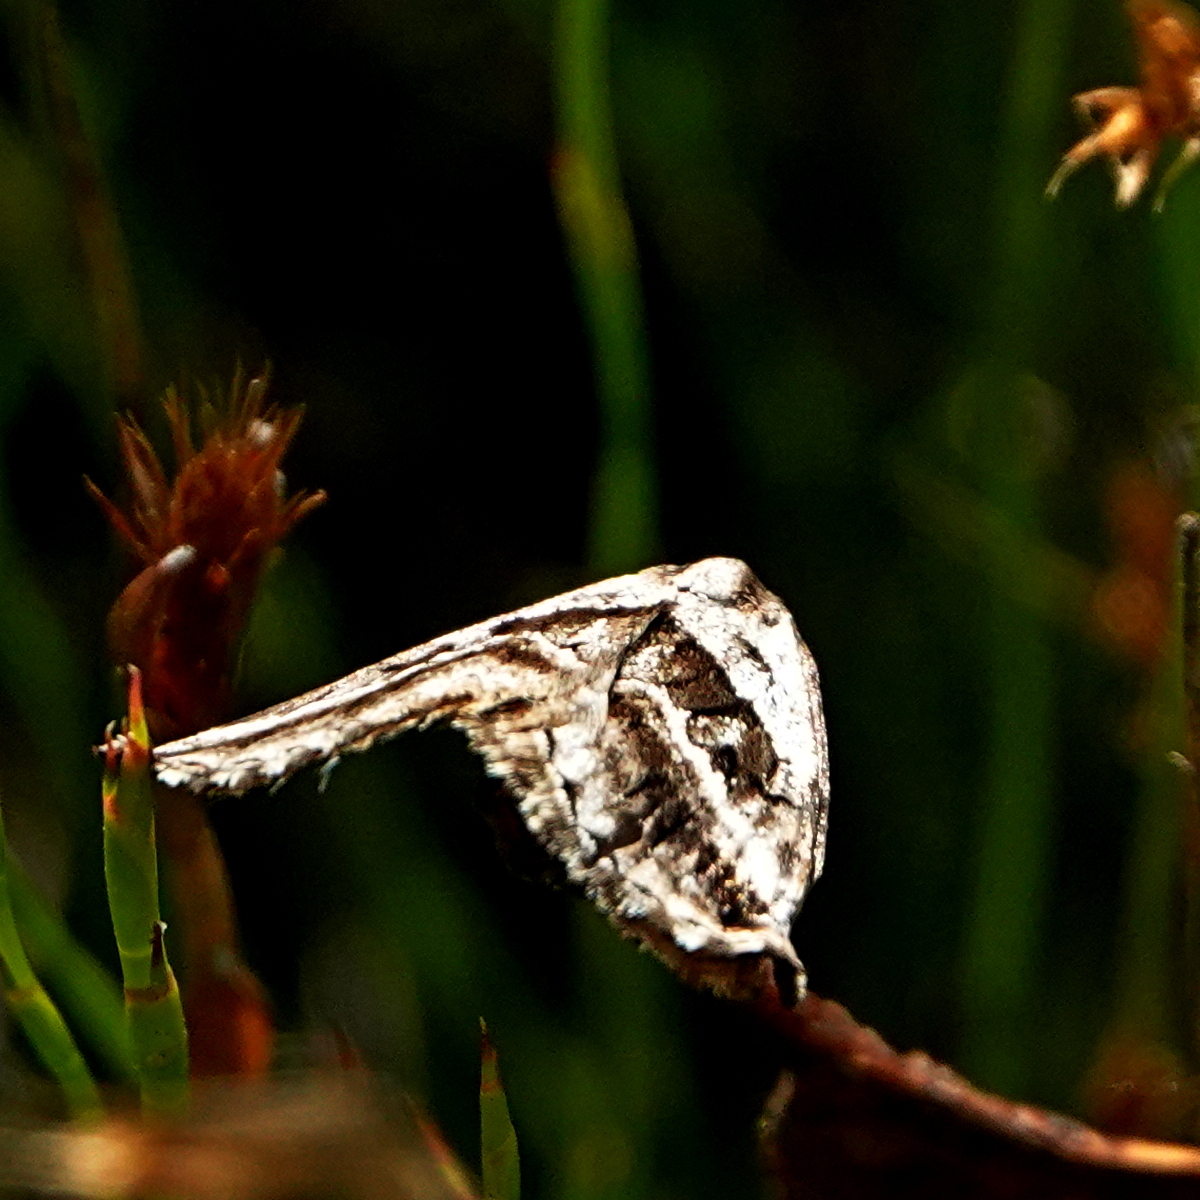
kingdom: Animalia
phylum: Arthropoda
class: Insecta
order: Lepidoptera
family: Geometridae
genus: Dichromodes
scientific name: Dichromodes stilbiata
